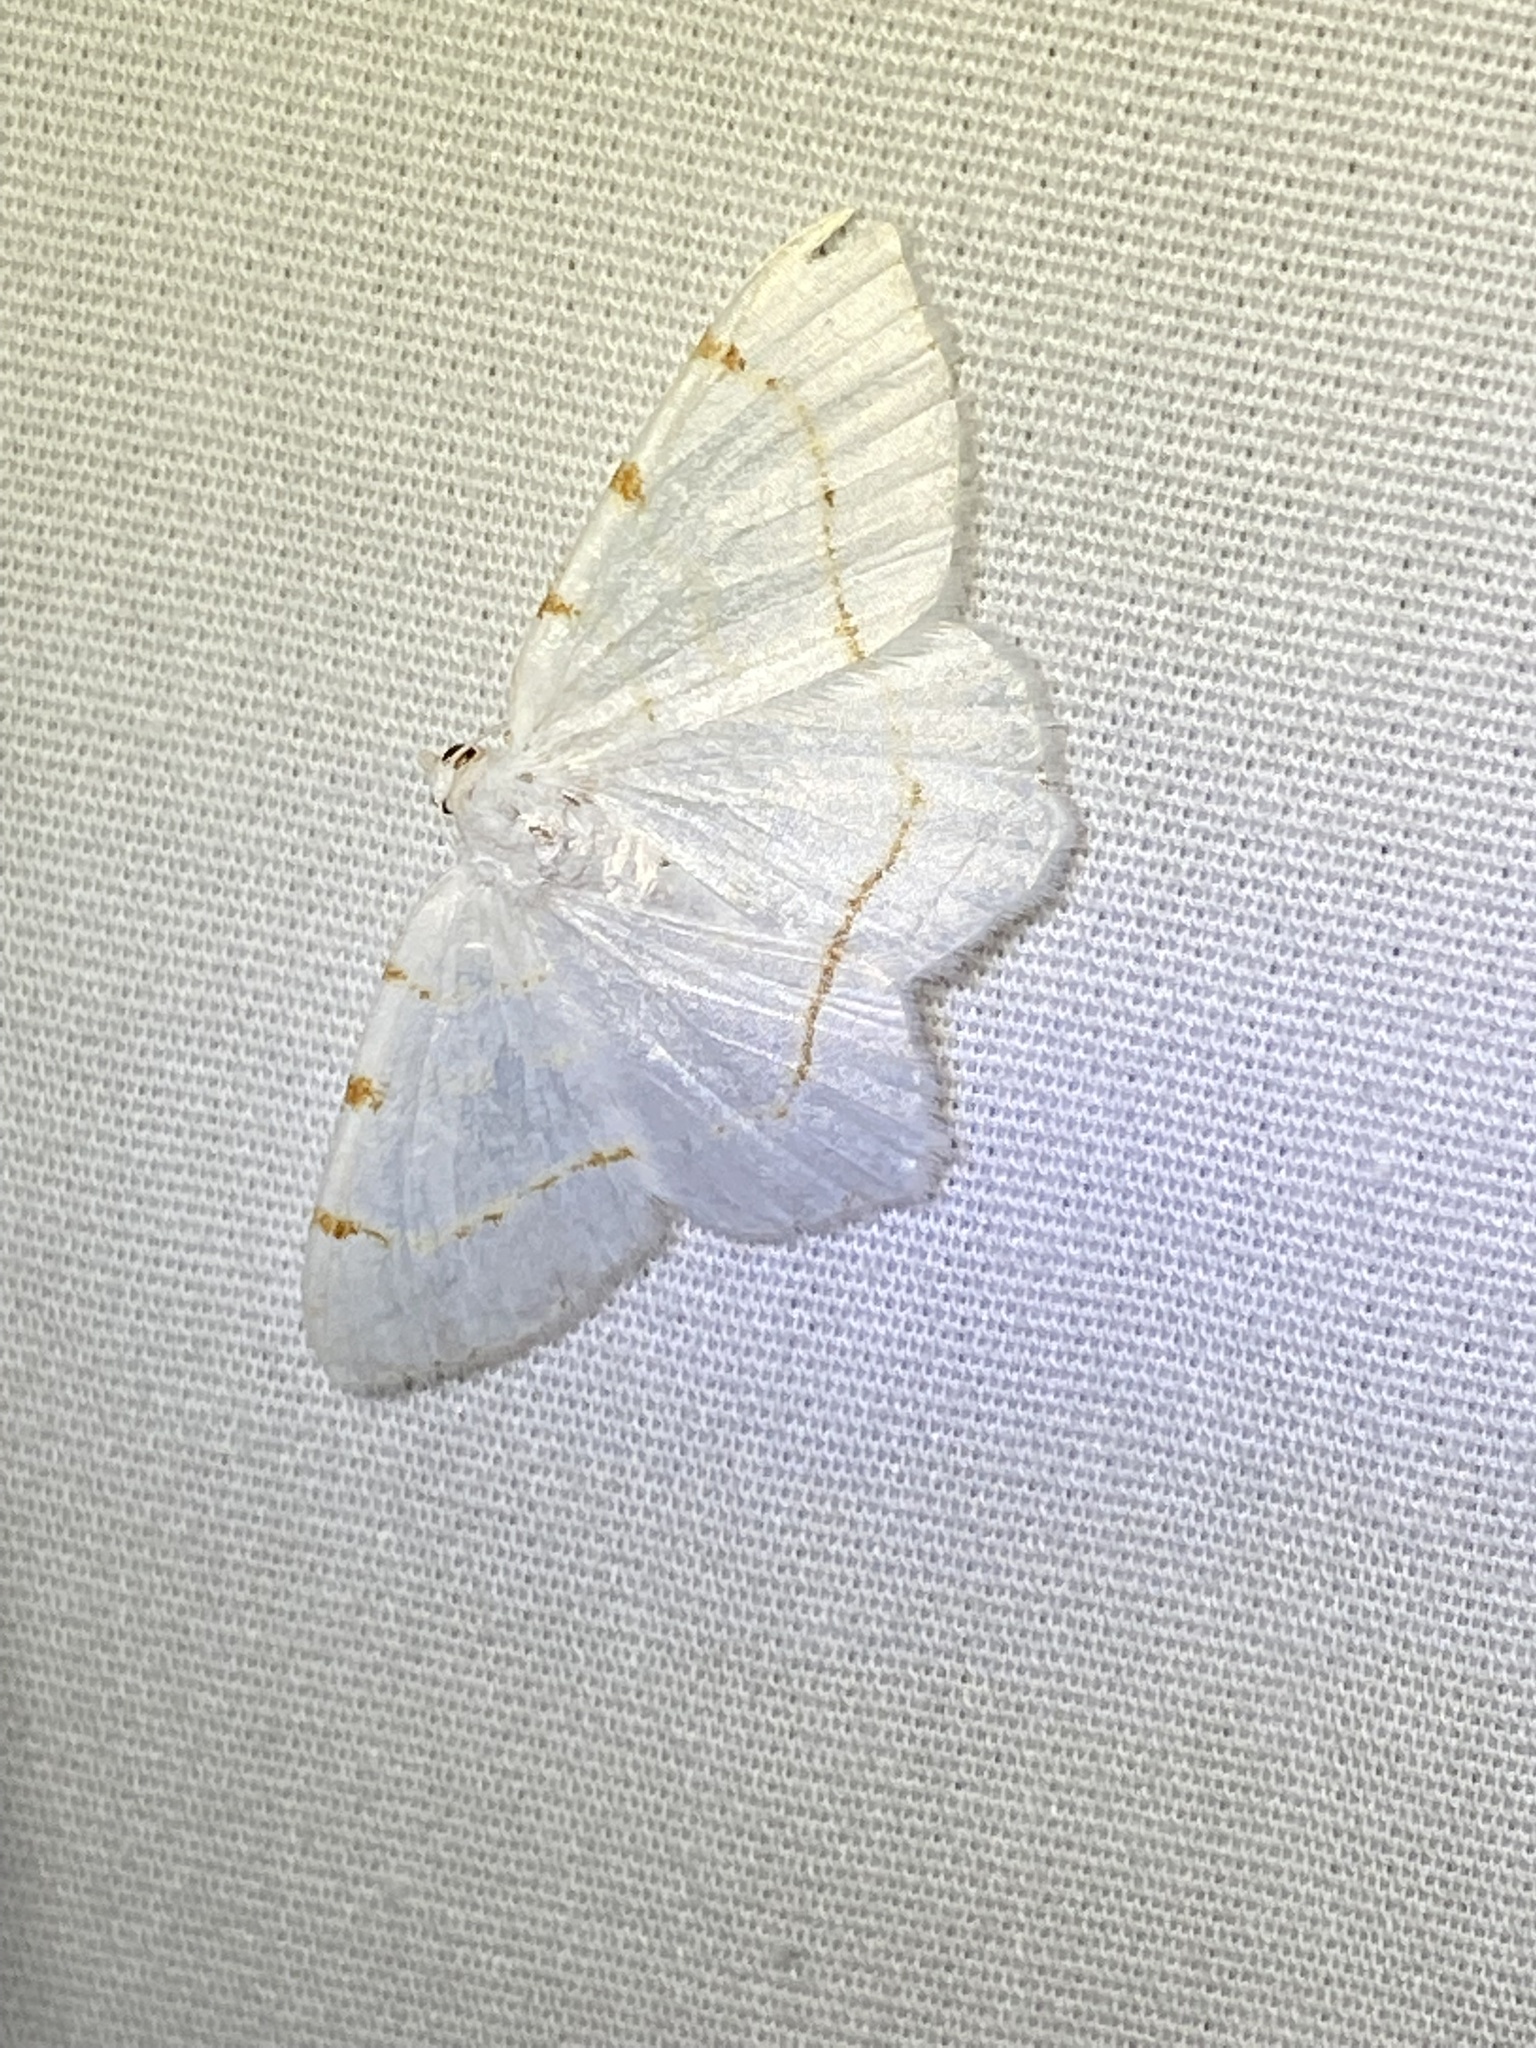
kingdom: Animalia
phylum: Arthropoda
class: Insecta
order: Lepidoptera
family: Geometridae
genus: Macaria
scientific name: Macaria pustularia
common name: Lesser maple spanworm moth
